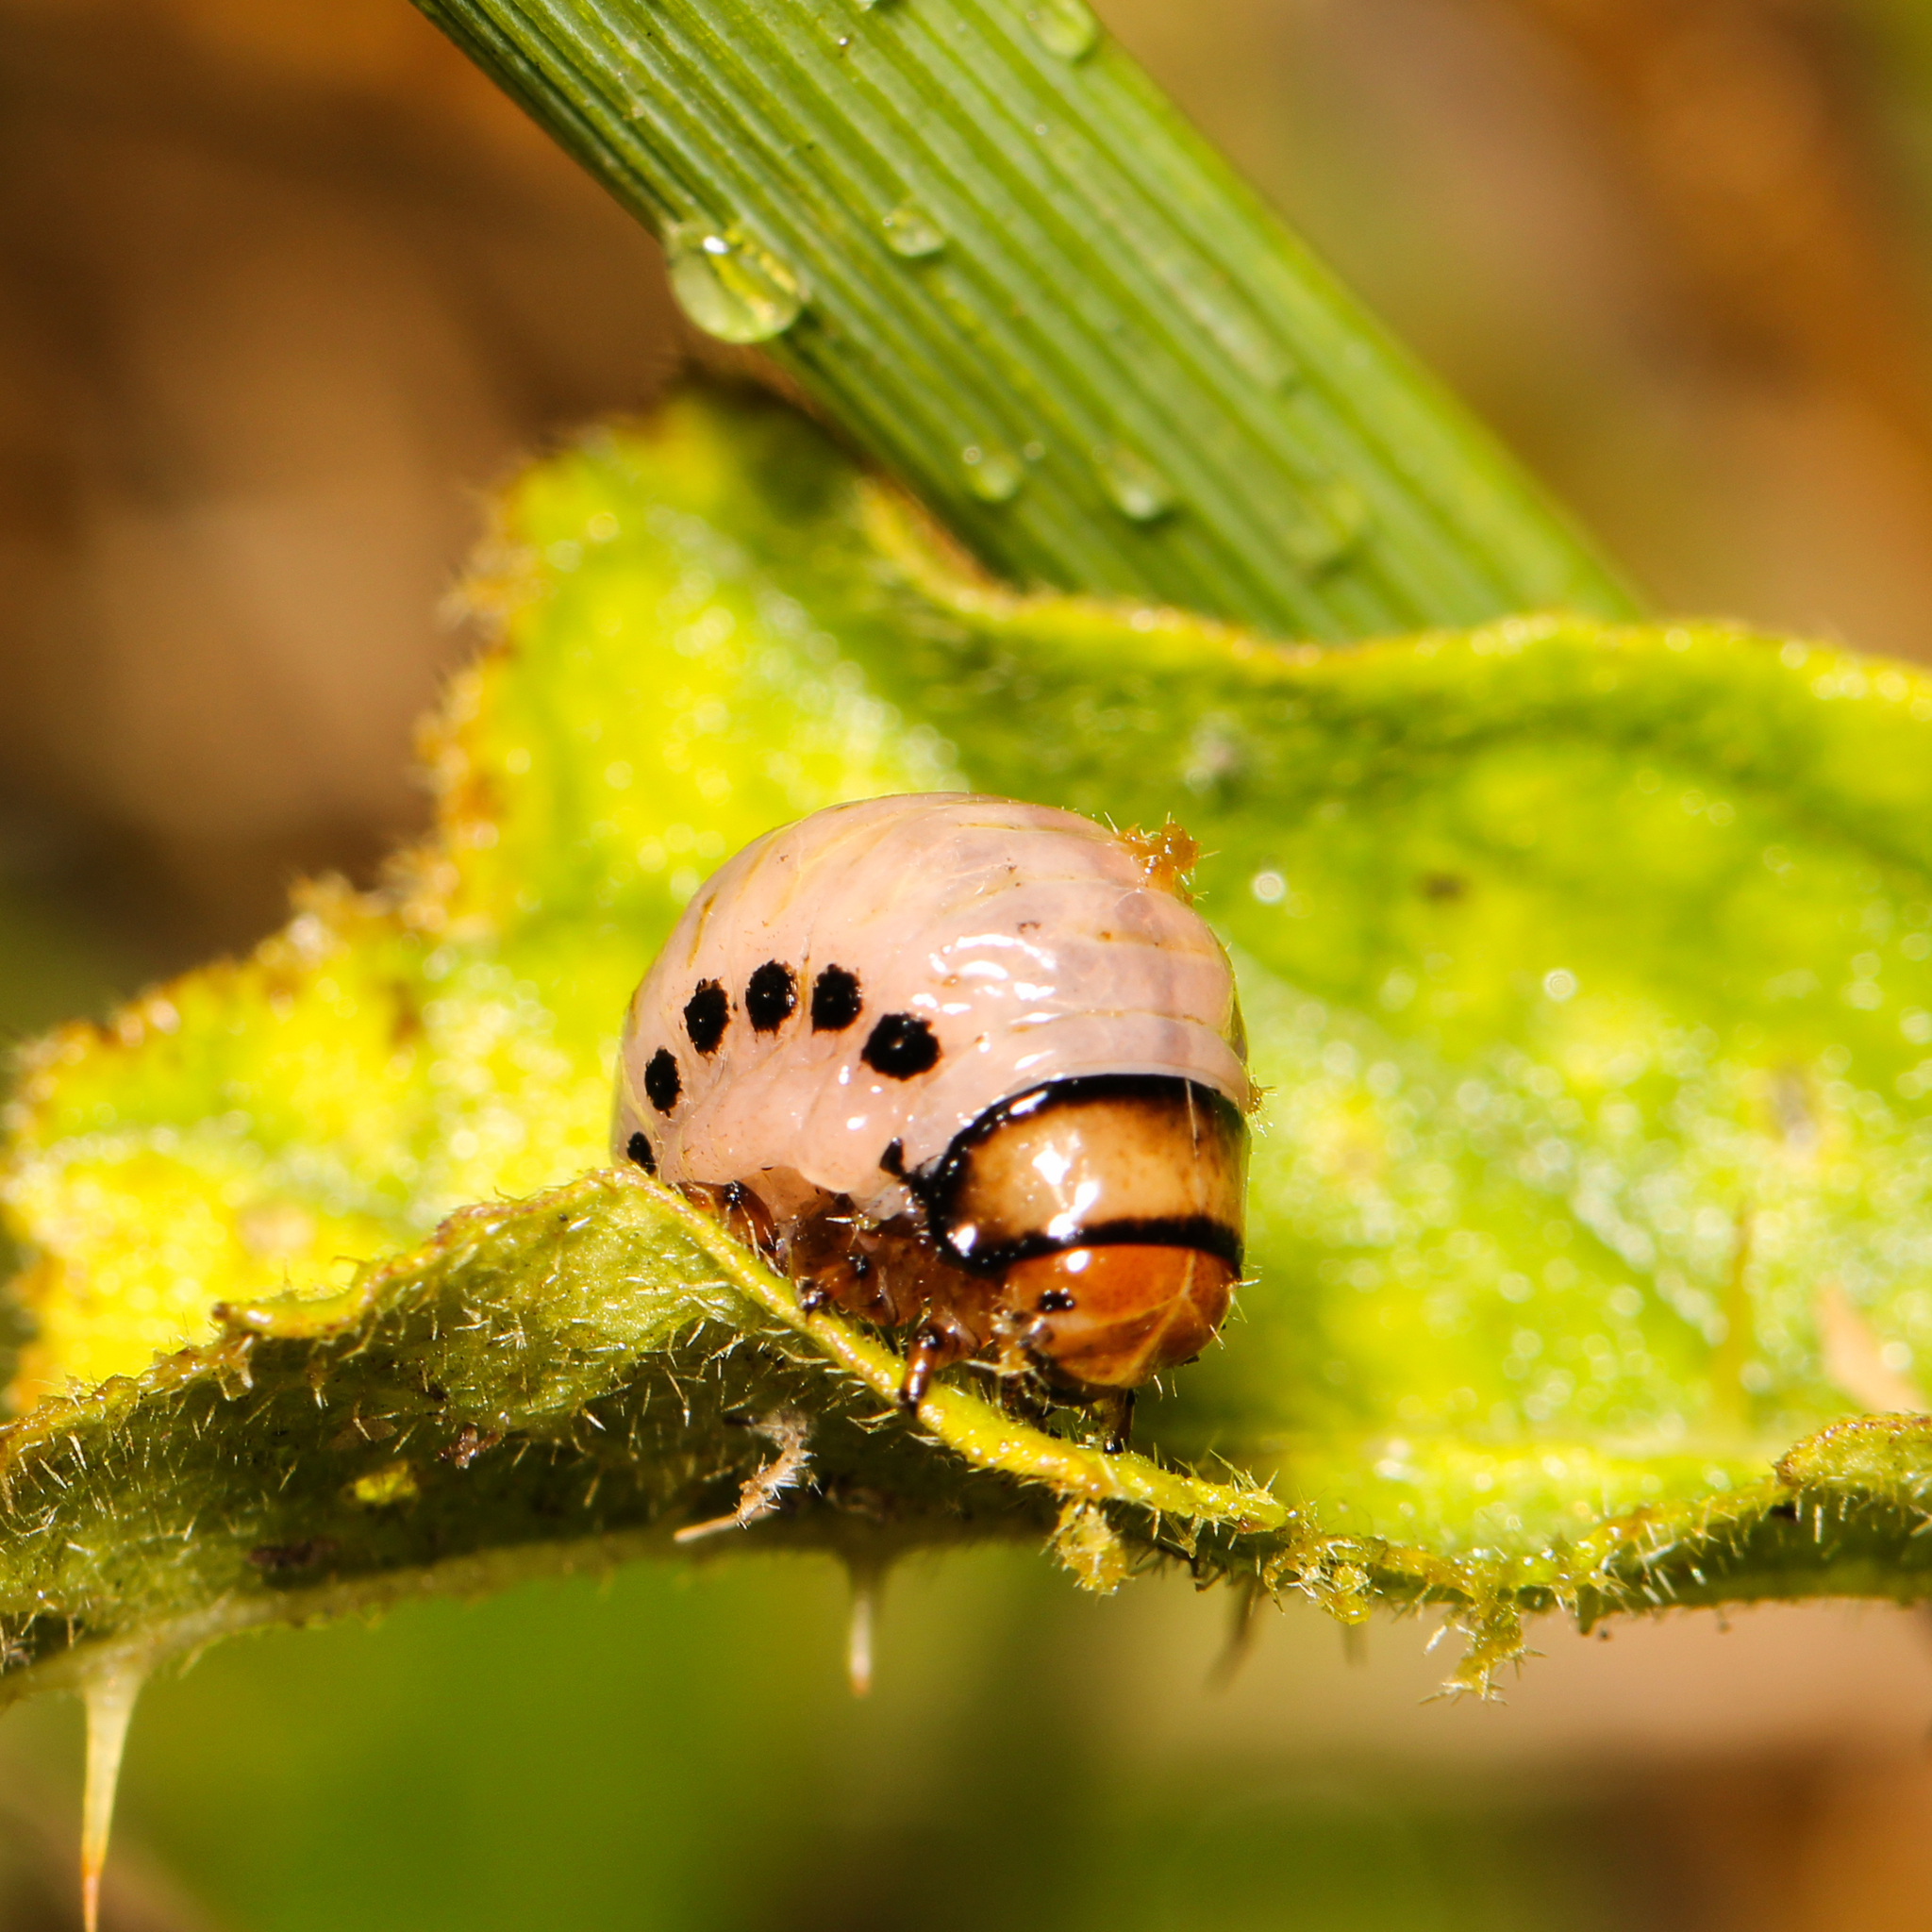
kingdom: Animalia
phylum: Arthropoda
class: Insecta
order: Coleoptera
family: Chrysomelidae
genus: Leptinotarsa
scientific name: Leptinotarsa juncta
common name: False potato beetle
